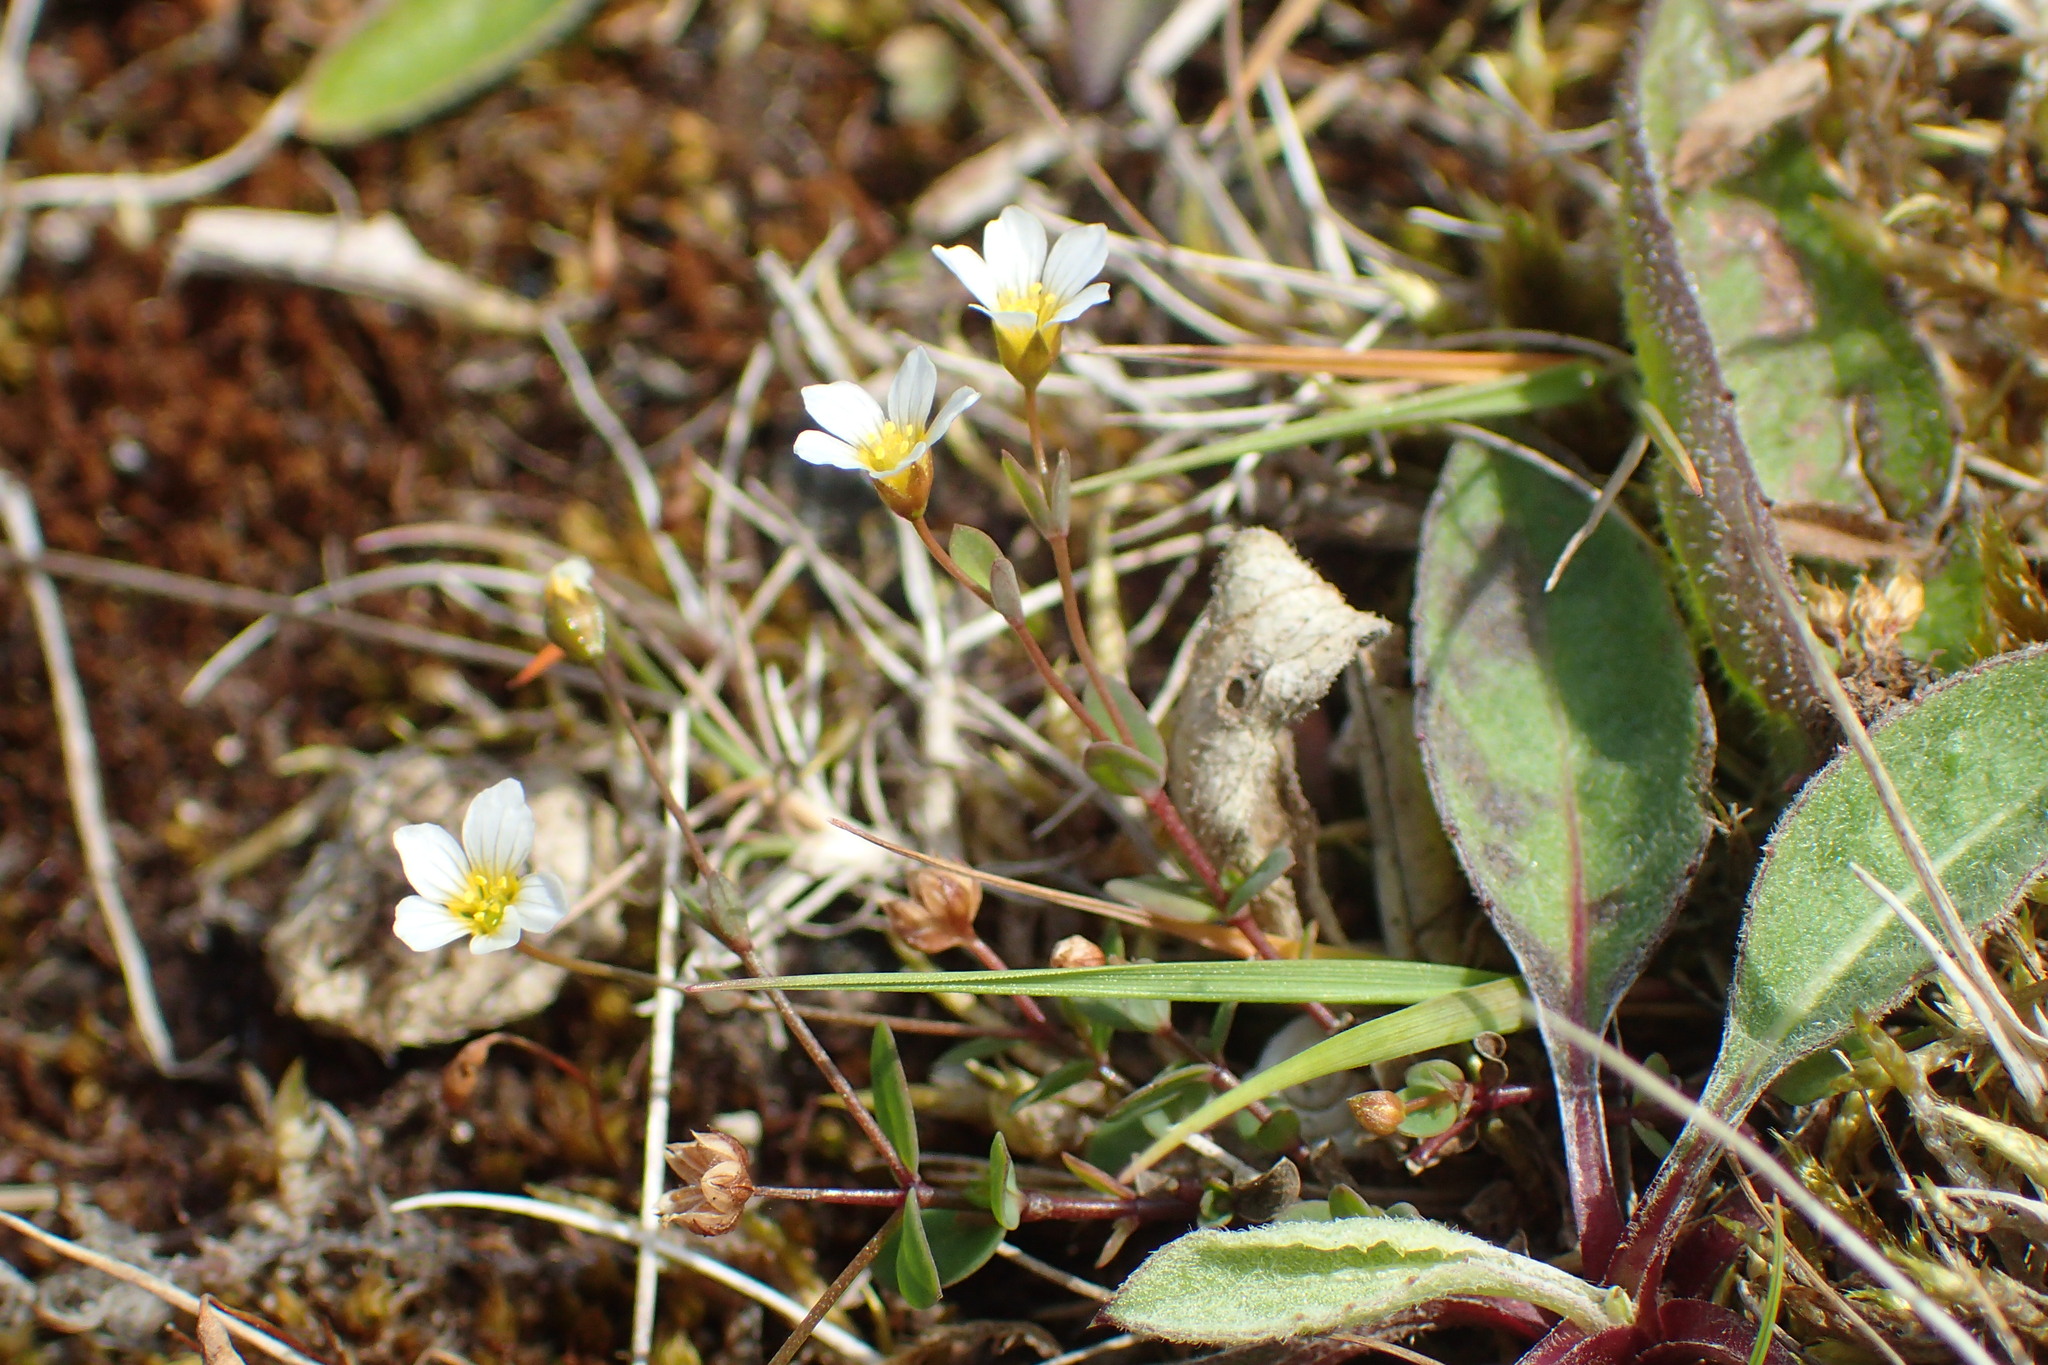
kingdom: Plantae
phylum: Tracheophyta
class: Magnoliopsida
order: Malpighiales
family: Linaceae
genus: Linum
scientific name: Linum catharticum
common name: Fairy flax
